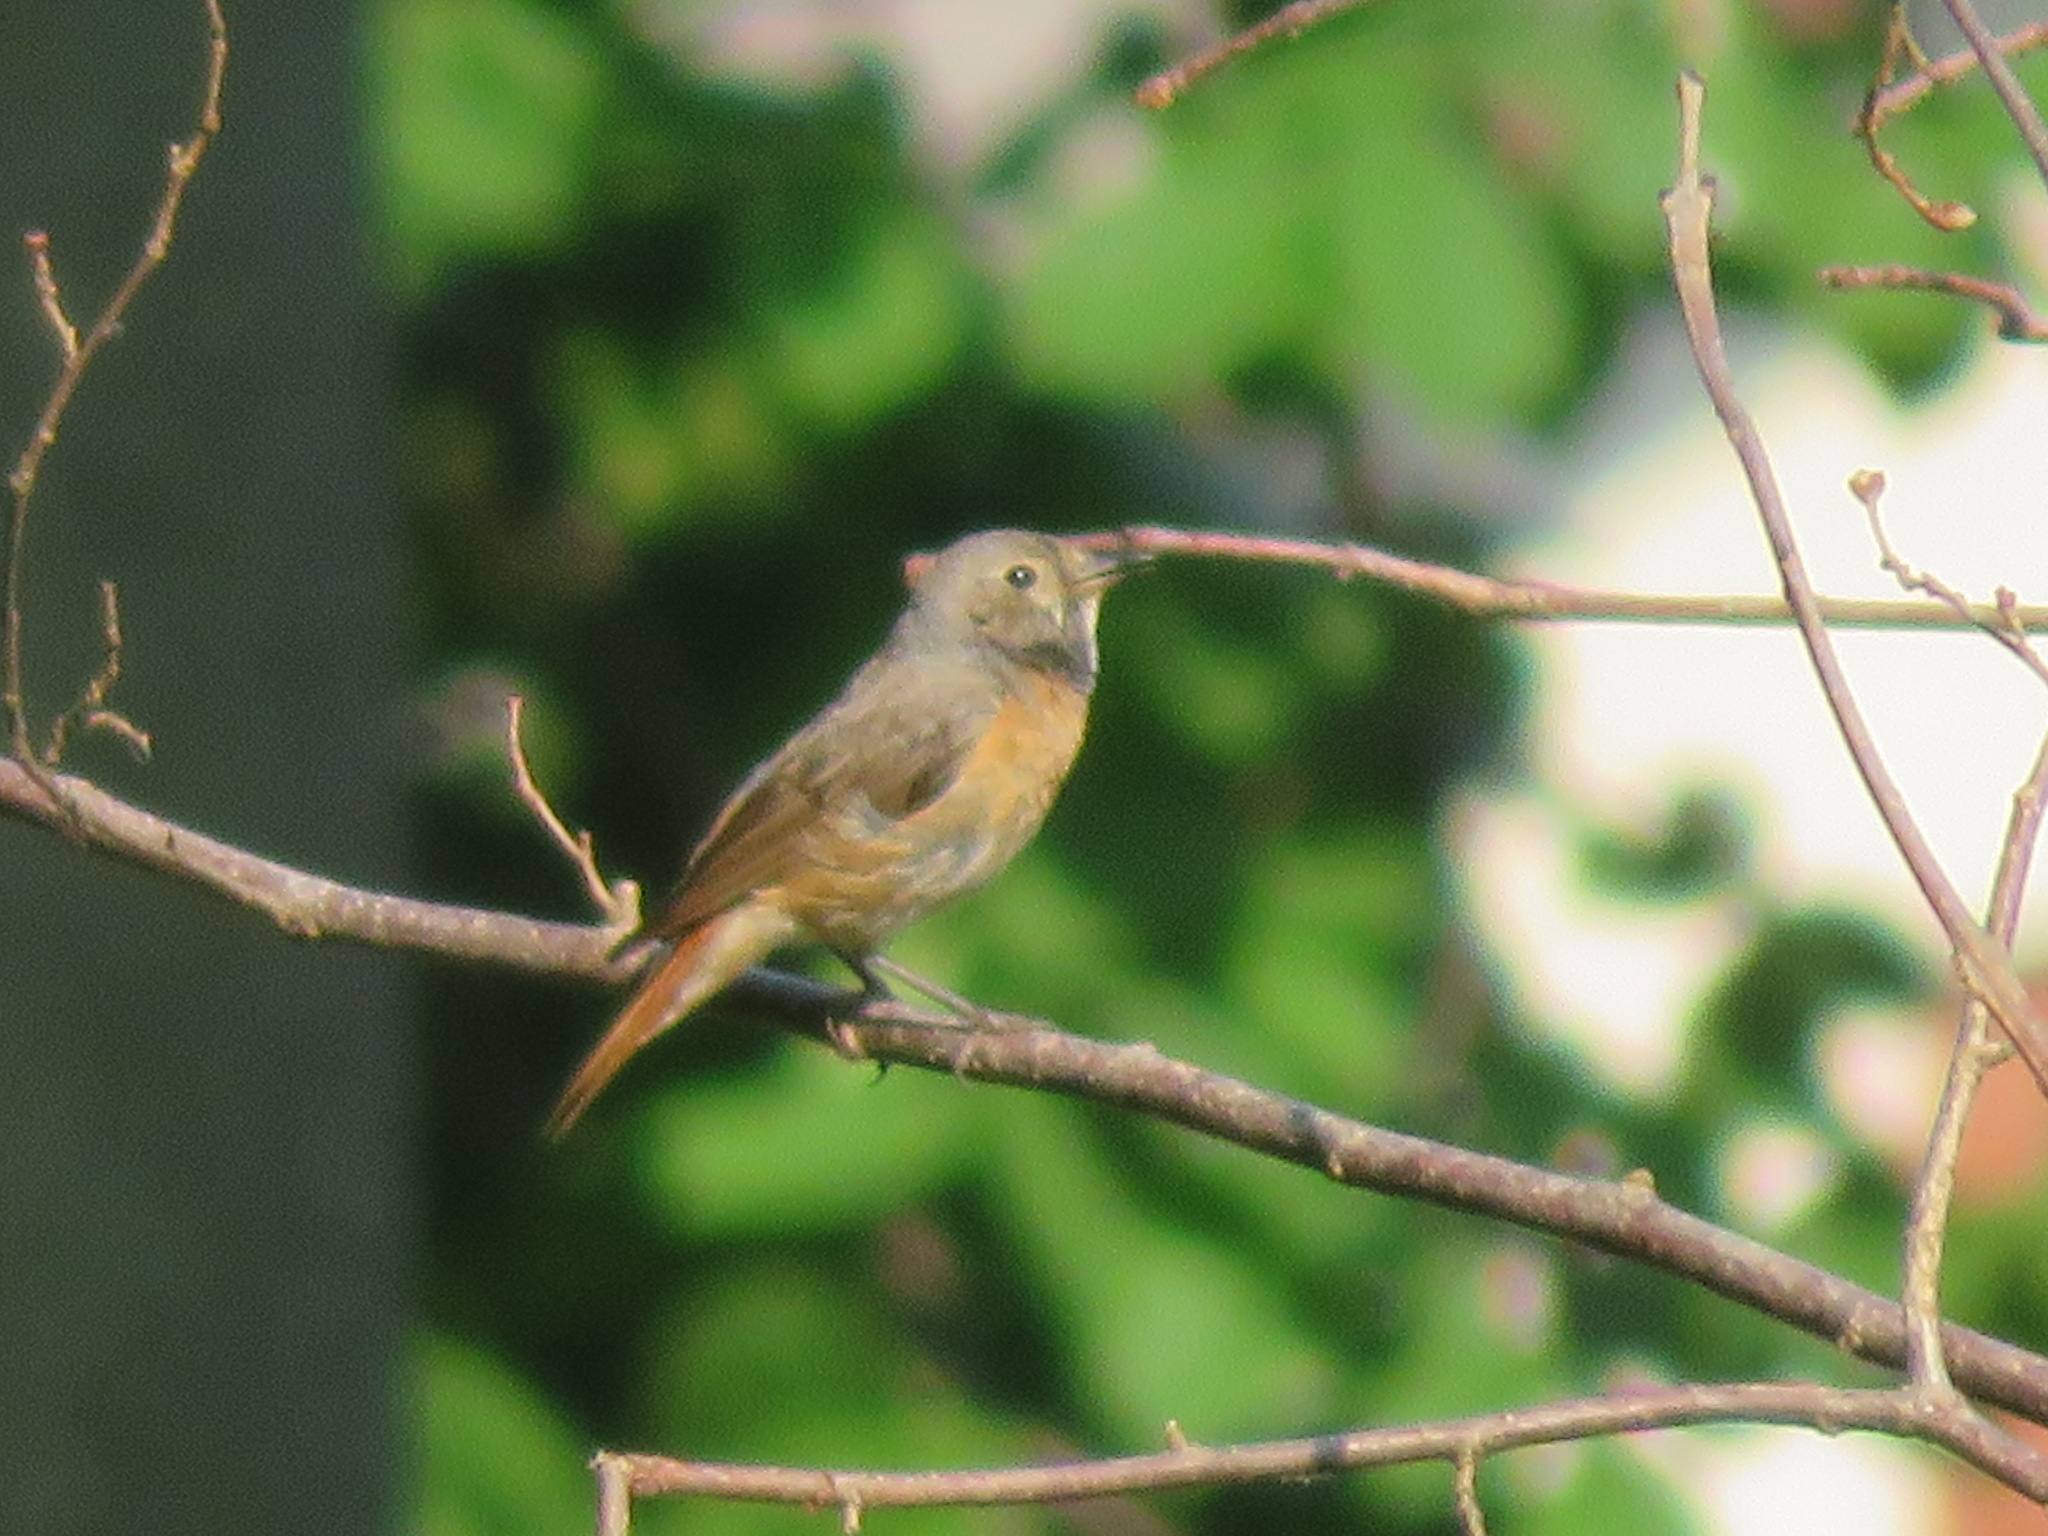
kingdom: Animalia
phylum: Chordata
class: Aves
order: Passeriformes
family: Muscicapidae
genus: Phoenicurus
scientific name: Phoenicurus phoenicurus
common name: Common redstart
